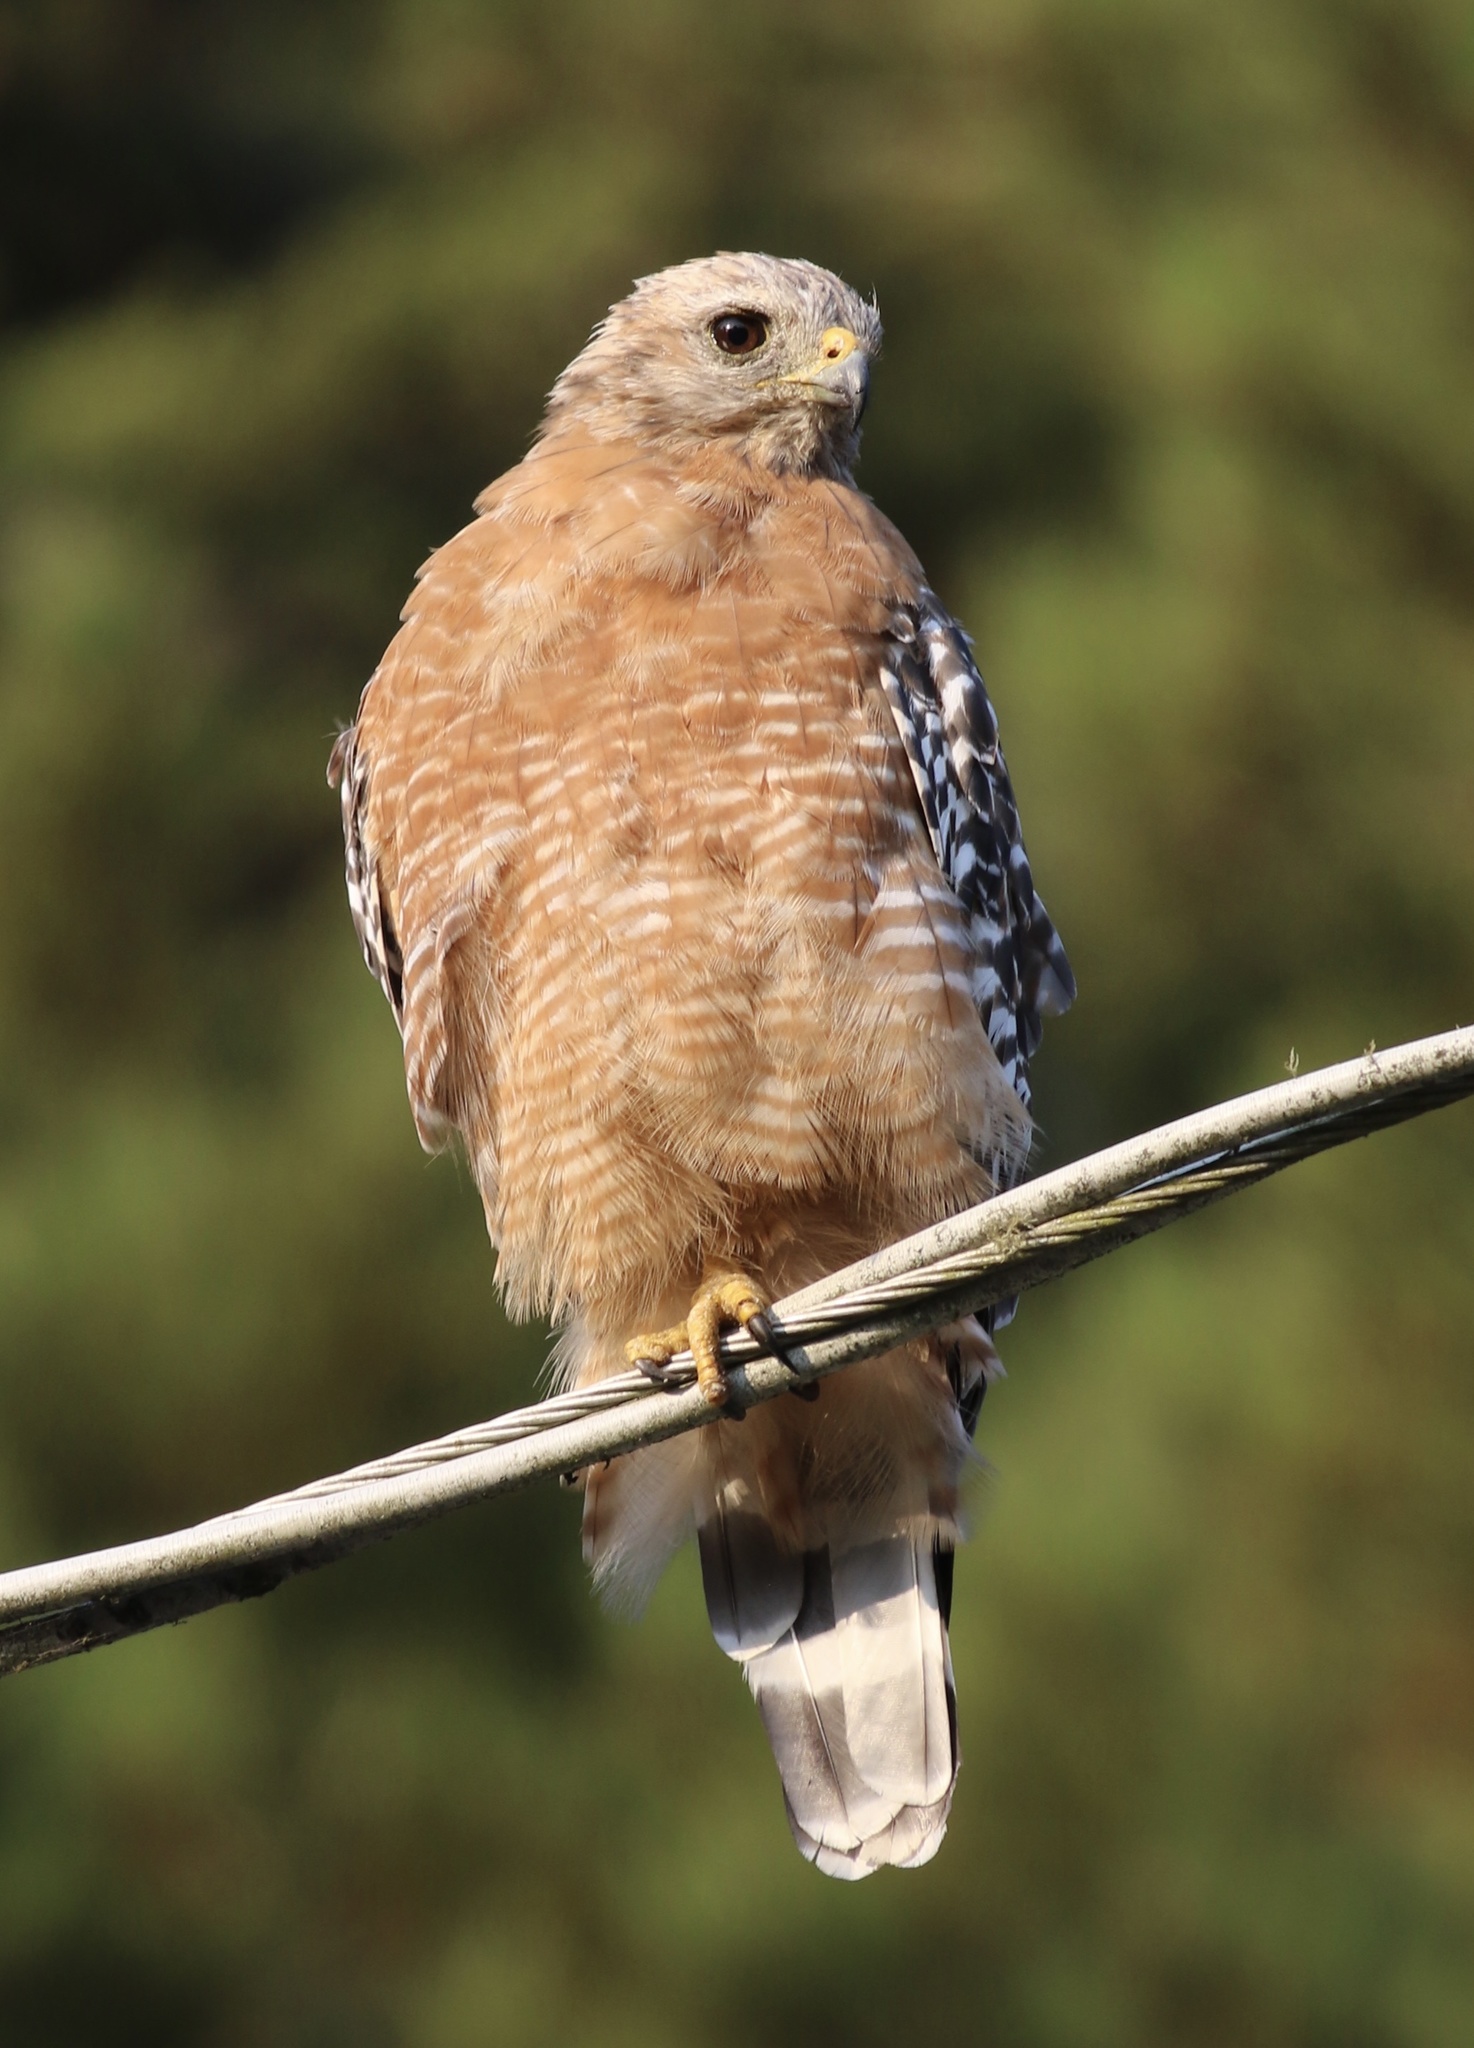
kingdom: Animalia
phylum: Chordata
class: Aves
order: Accipitriformes
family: Accipitridae
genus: Buteo
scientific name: Buteo lineatus
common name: Red-shouldered hawk
